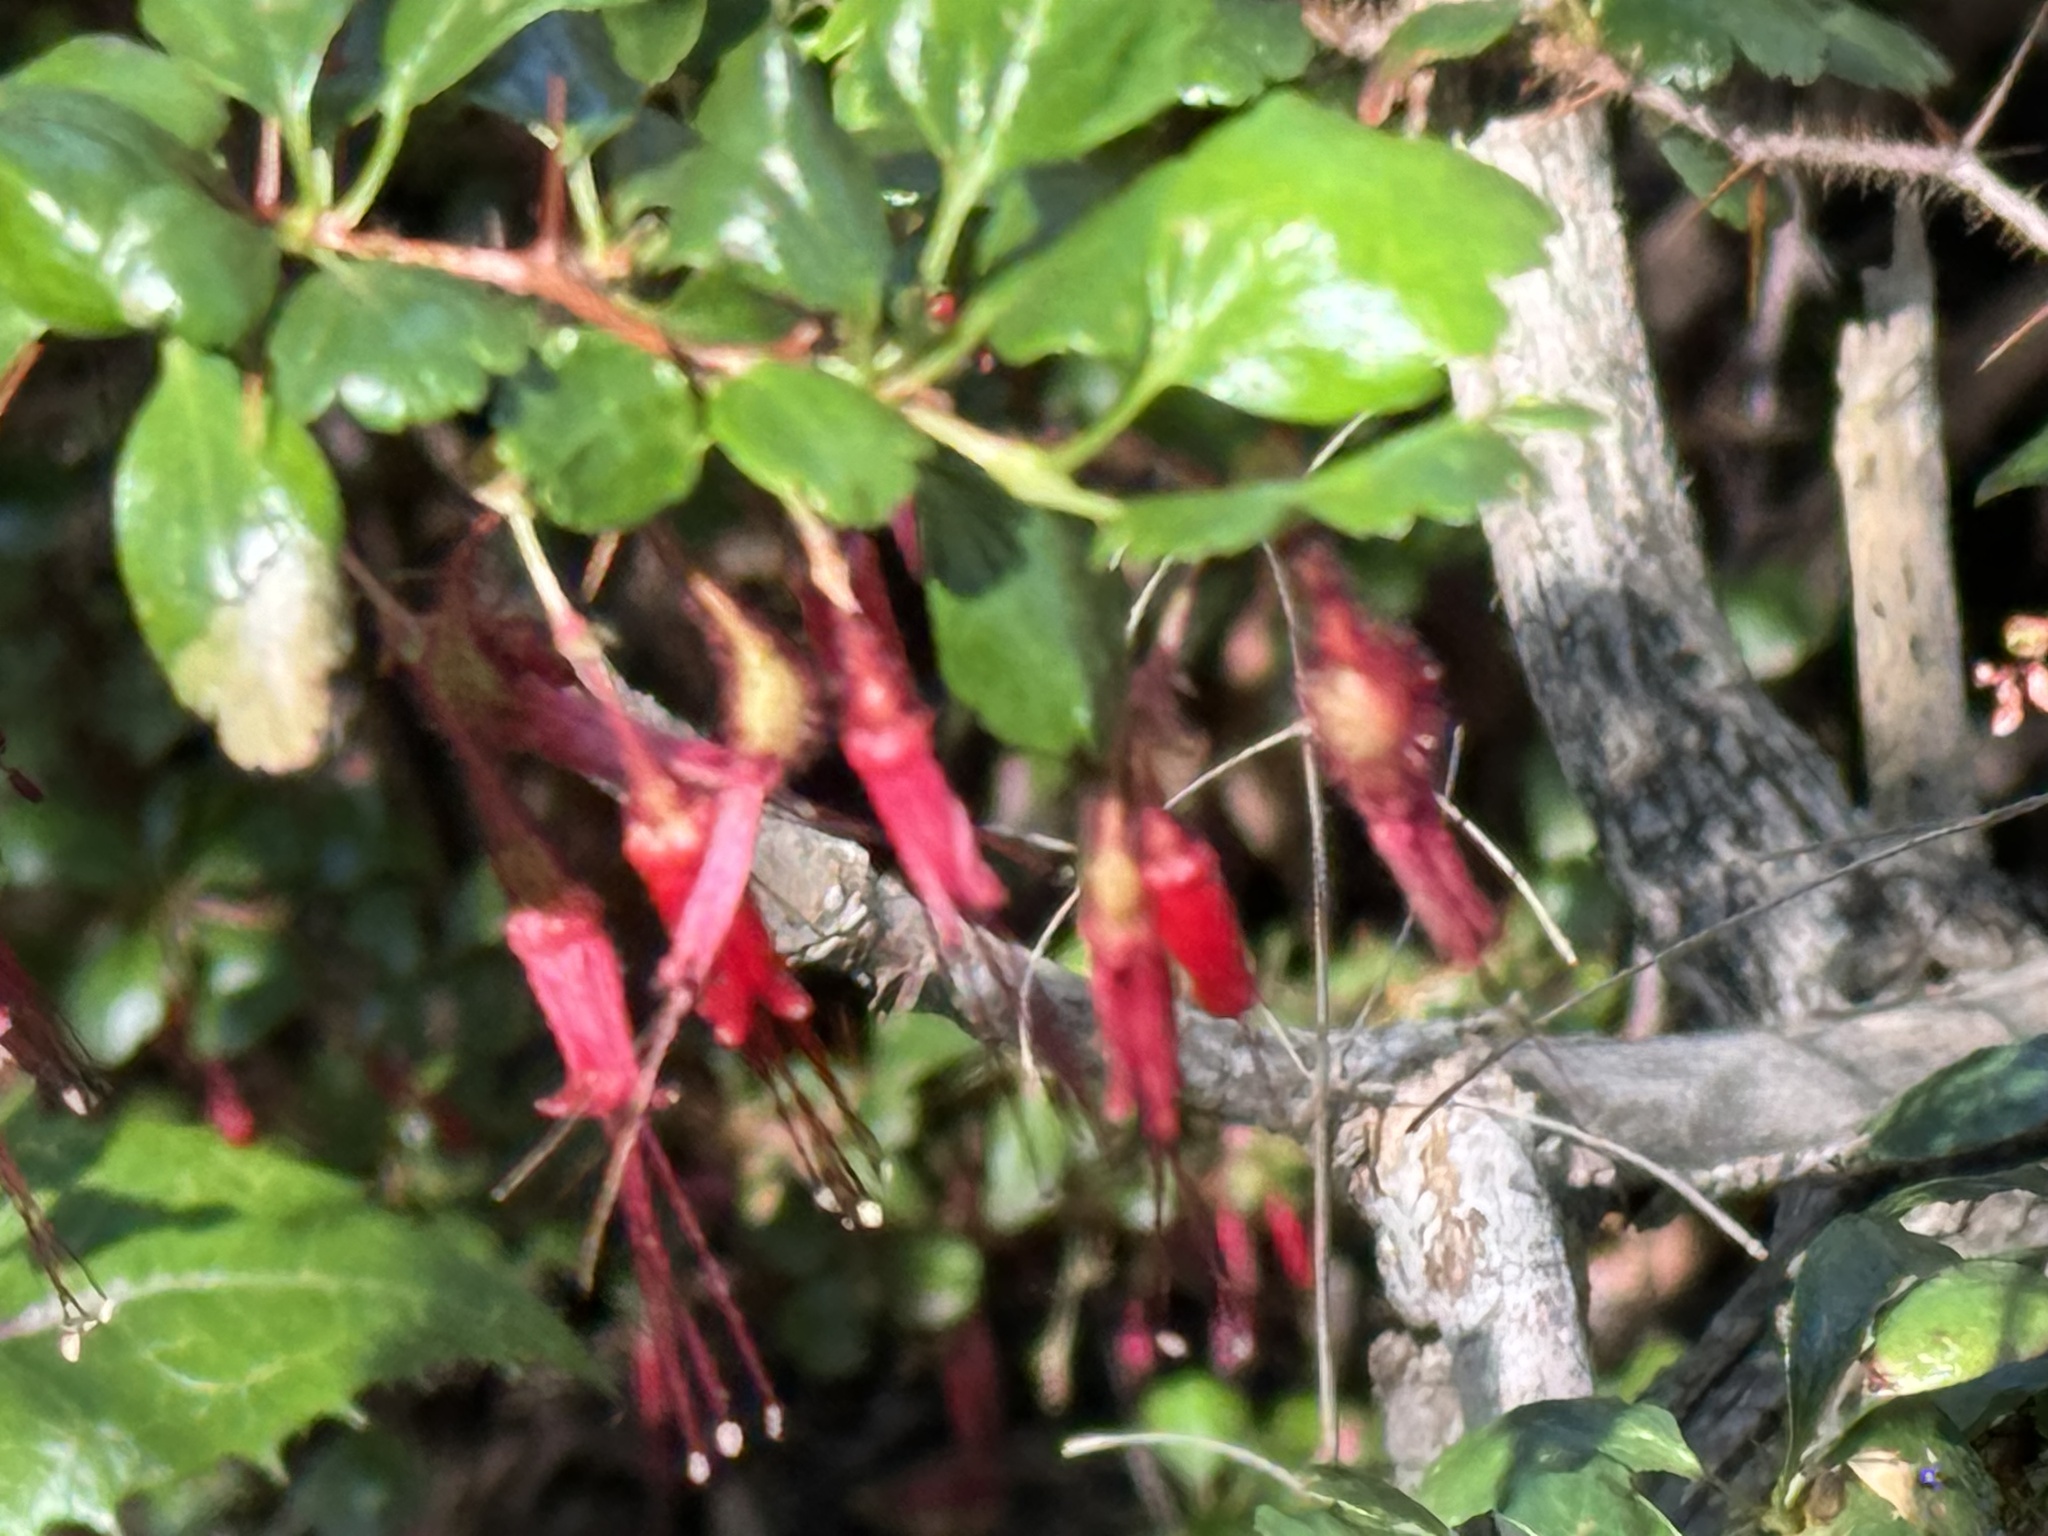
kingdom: Plantae
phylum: Tracheophyta
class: Magnoliopsida
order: Saxifragales
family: Grossulariaceae
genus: Ribes
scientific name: Ribes speciosum
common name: Fuchsia-flower gooseberry
